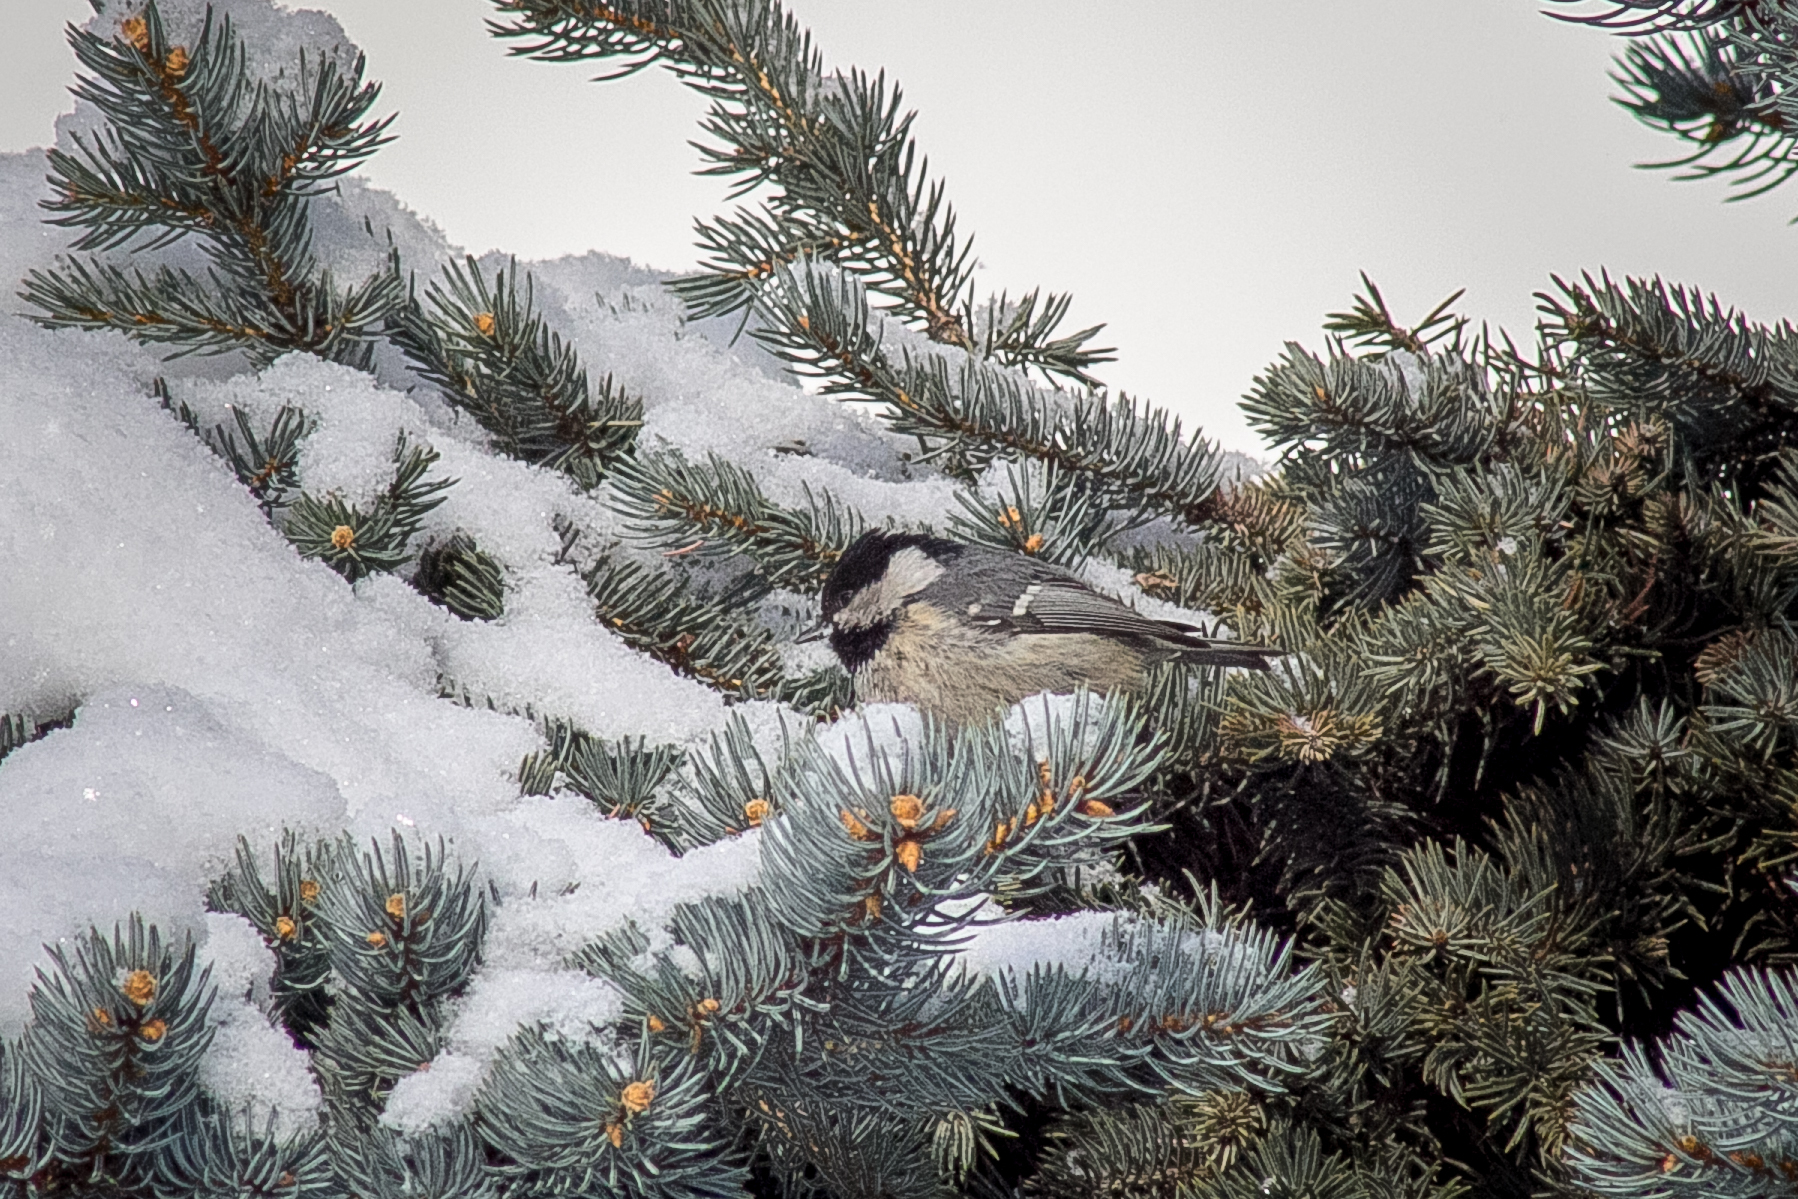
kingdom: Animalia
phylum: Chordata
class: Aves
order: Passeriformes
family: Paridae
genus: Periparus
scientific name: Periparus ater
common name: Coal tit
